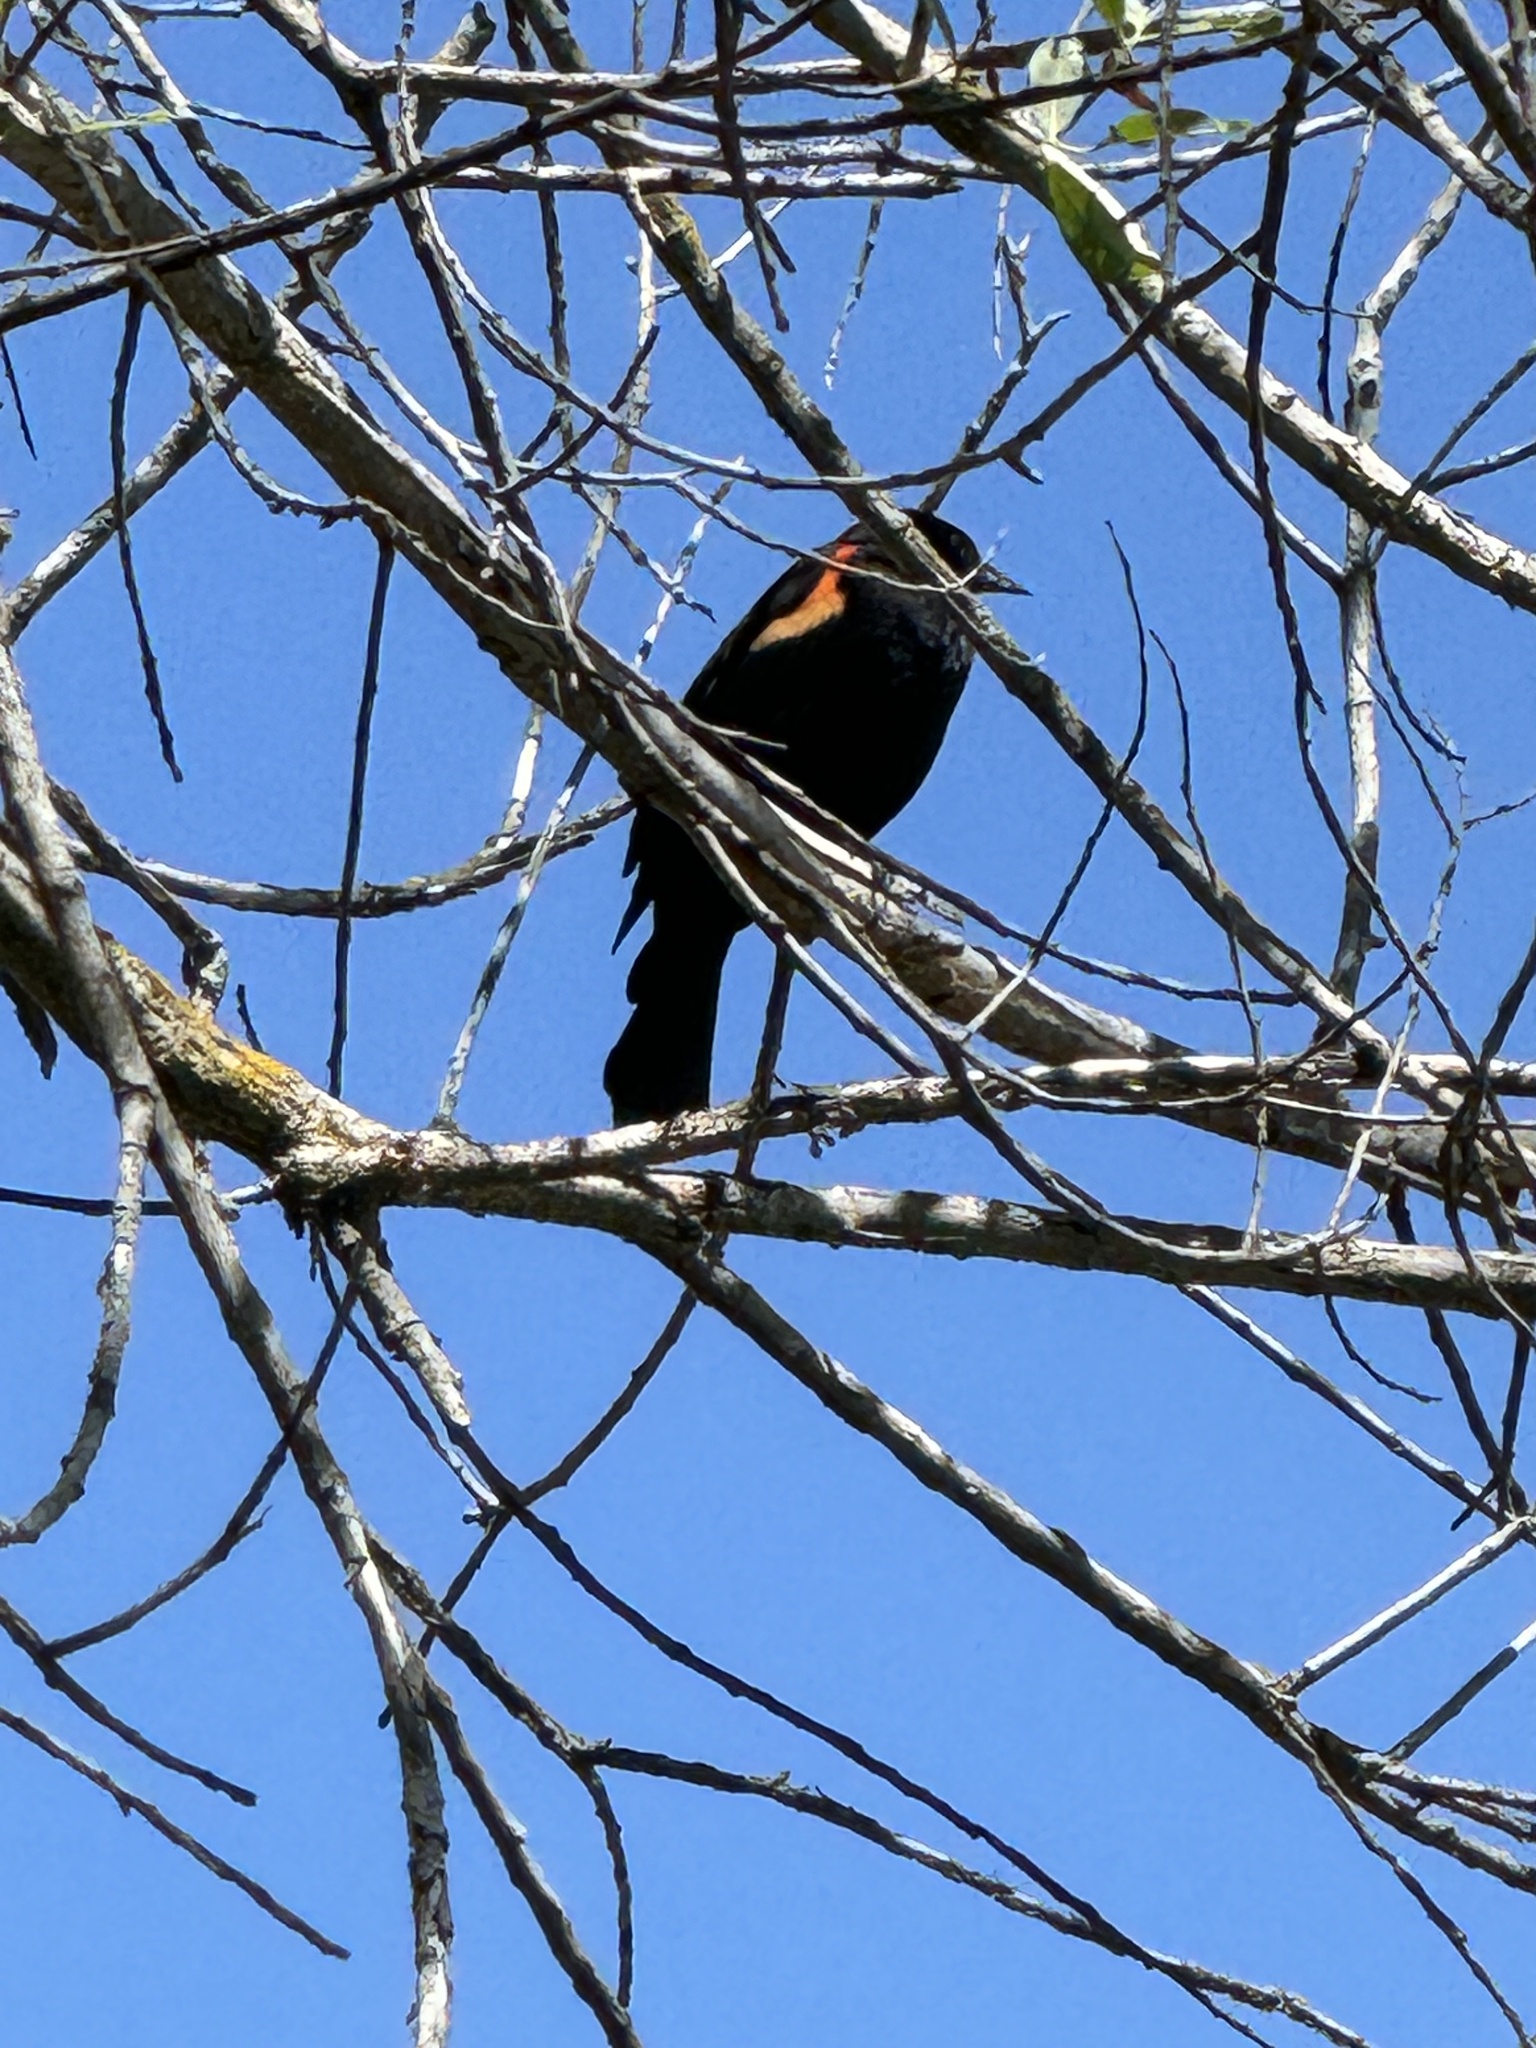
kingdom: Animalia
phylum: Chordata
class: Aves
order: Passeriformes
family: Icteridae
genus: Agelaius
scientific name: Agelaius phoeniceus
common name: Red-winged blackbird
